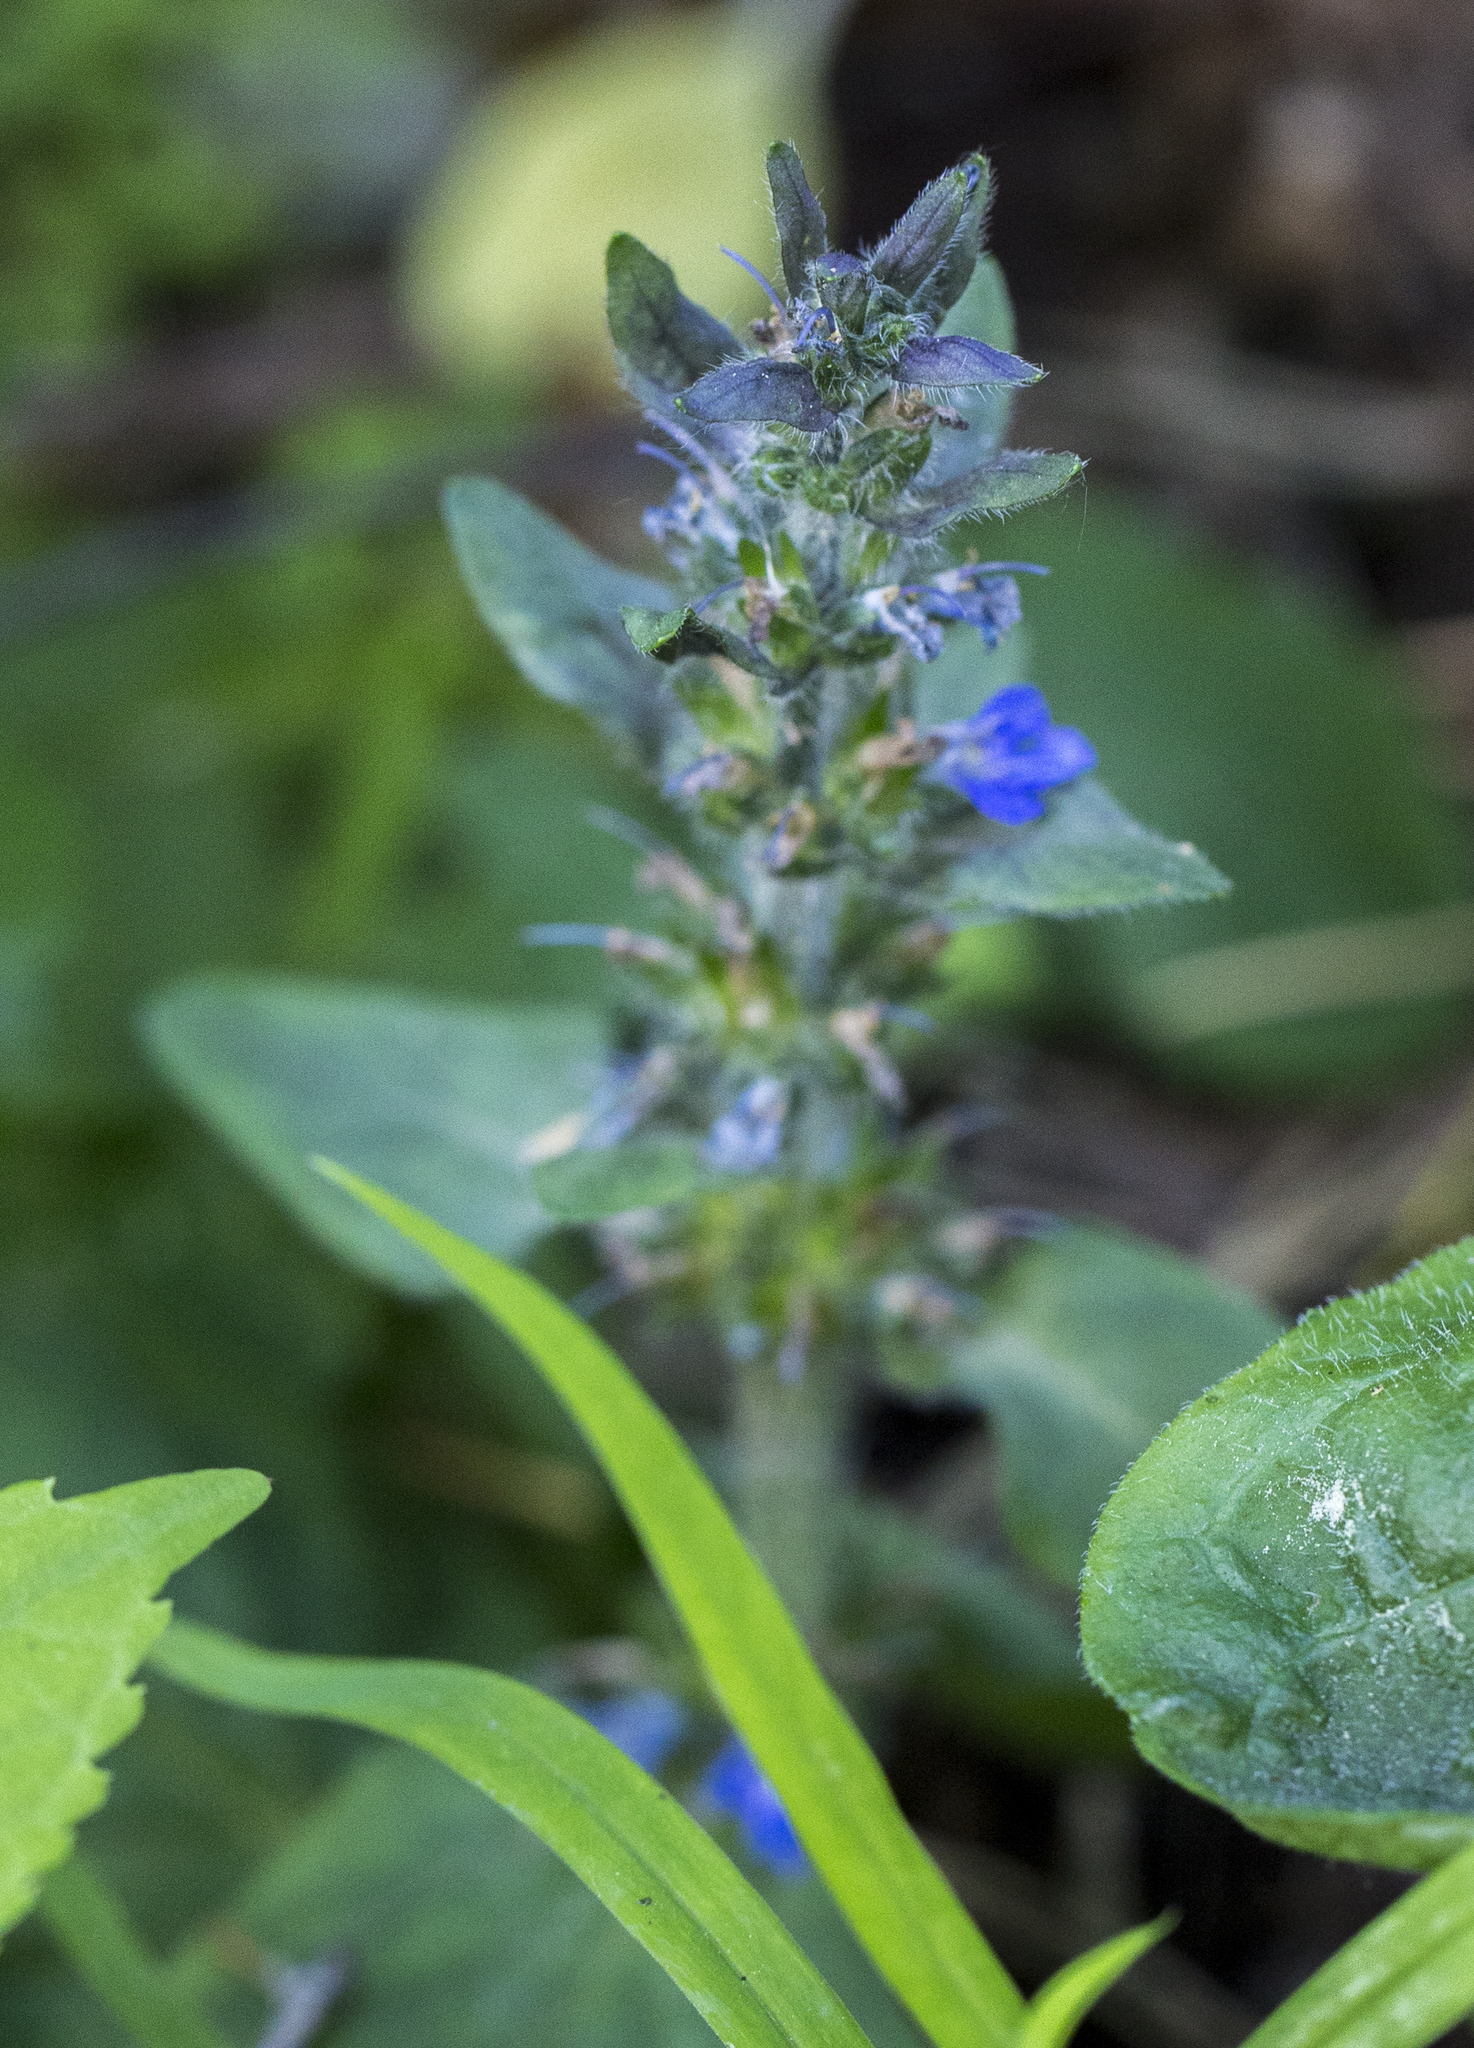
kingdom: Plantae
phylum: Tracheophyta
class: Magnoliopsida
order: Lamiales
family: Lamiaceae
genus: Ajuga
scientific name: Ajuga reptans
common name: Bugle
